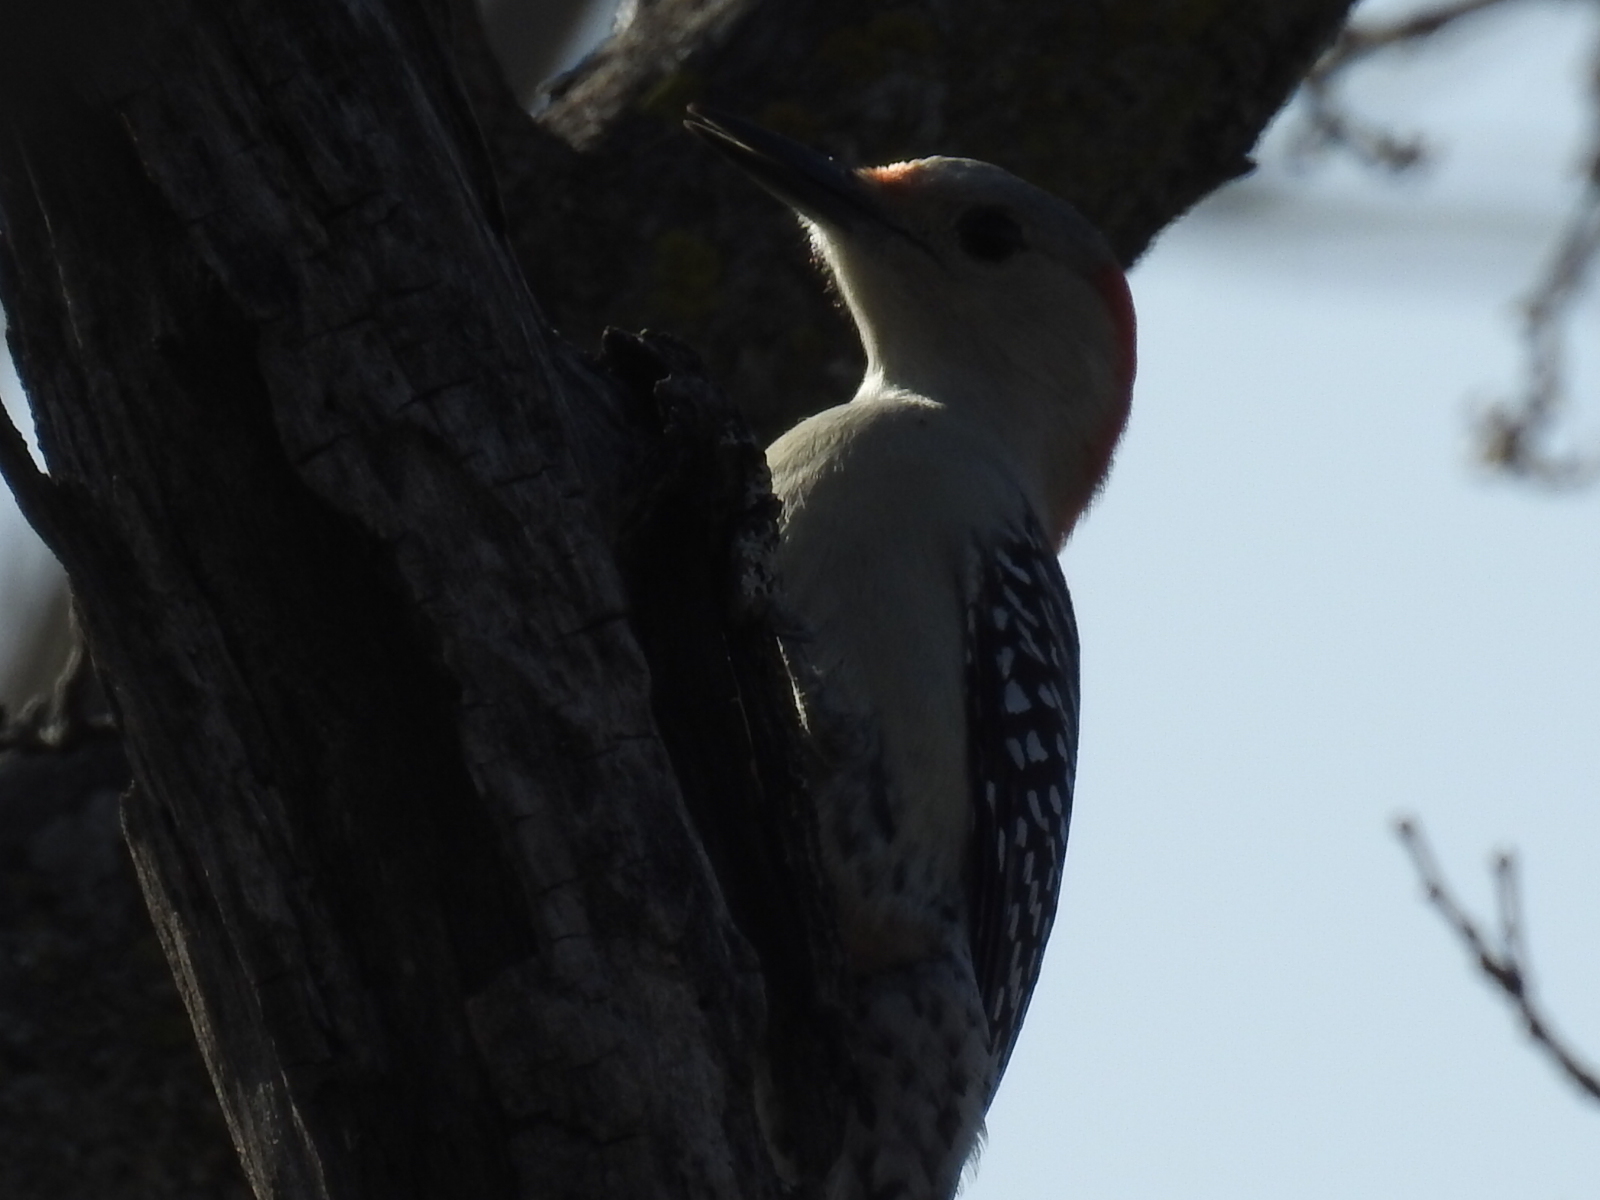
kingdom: Animalia
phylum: Chordata
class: Aves
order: Piciformes
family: Picidae
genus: Melanerpes
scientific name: Melanerpes carolinus
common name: Red-bellied woodpecker
